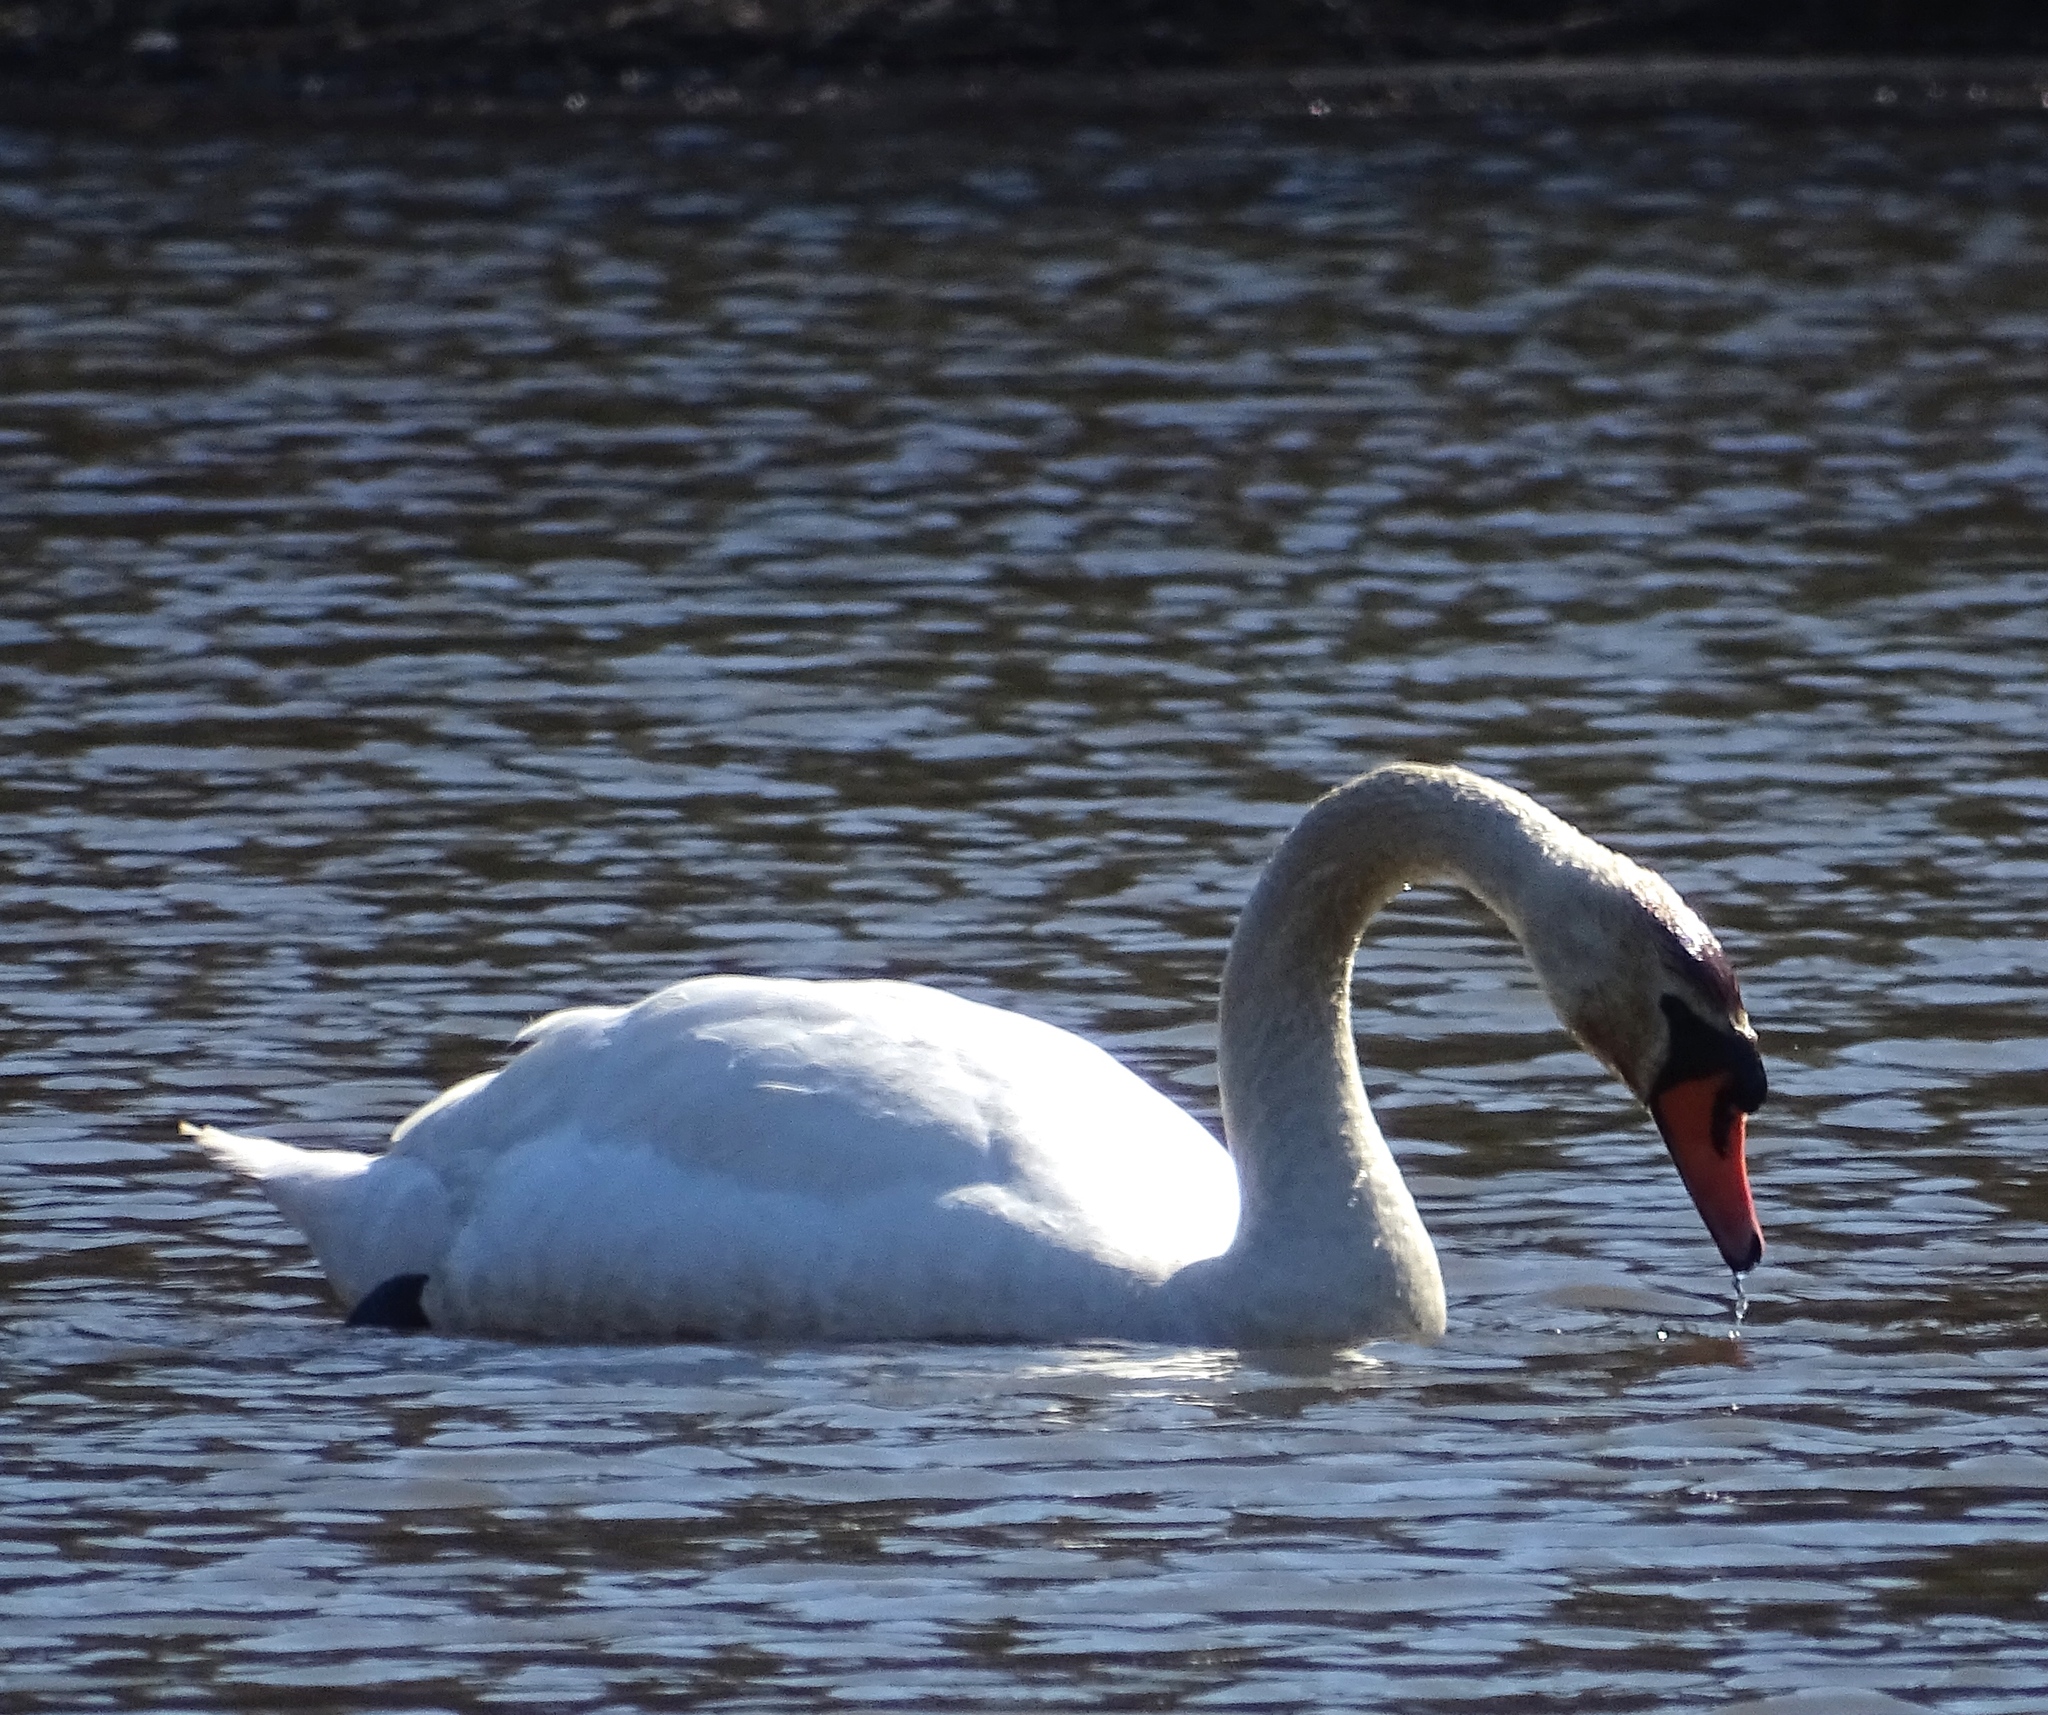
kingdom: Animalia
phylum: Chordata
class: Aves
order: Anseriformes
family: Anatidae
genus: Cygnus
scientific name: Cygnus olor
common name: Mute swan
